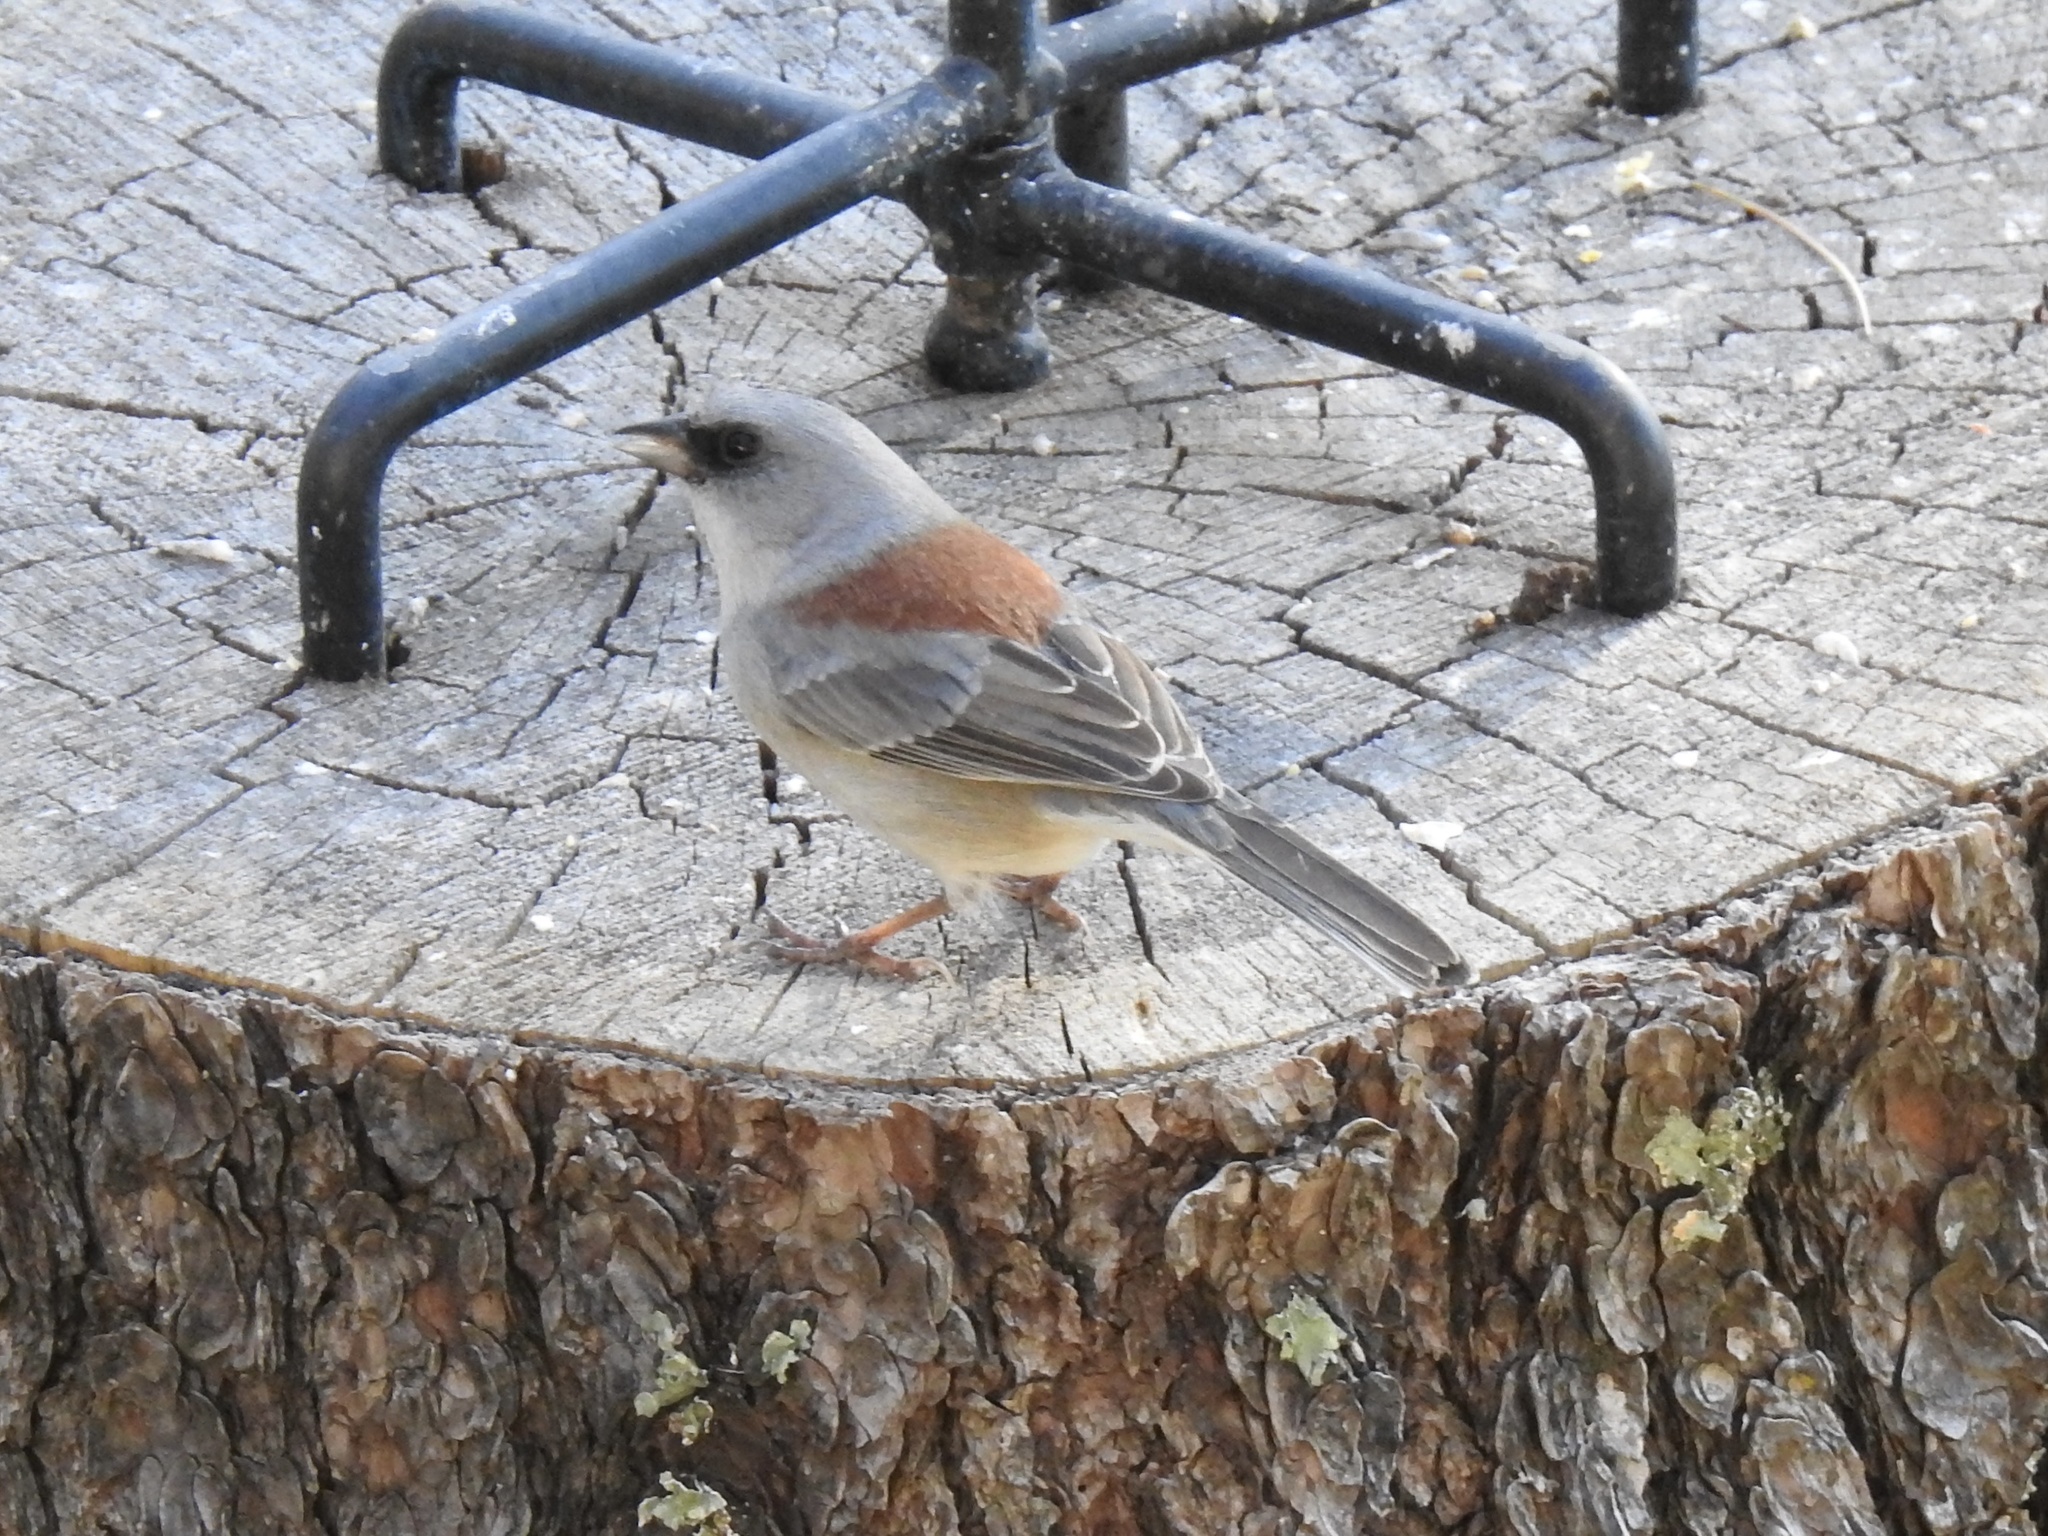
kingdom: Animalia
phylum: Chordata
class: Aves
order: Passeriformes
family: Passerellidae
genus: Junco
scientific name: Junco hyemalis
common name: Dark-eyed junco
